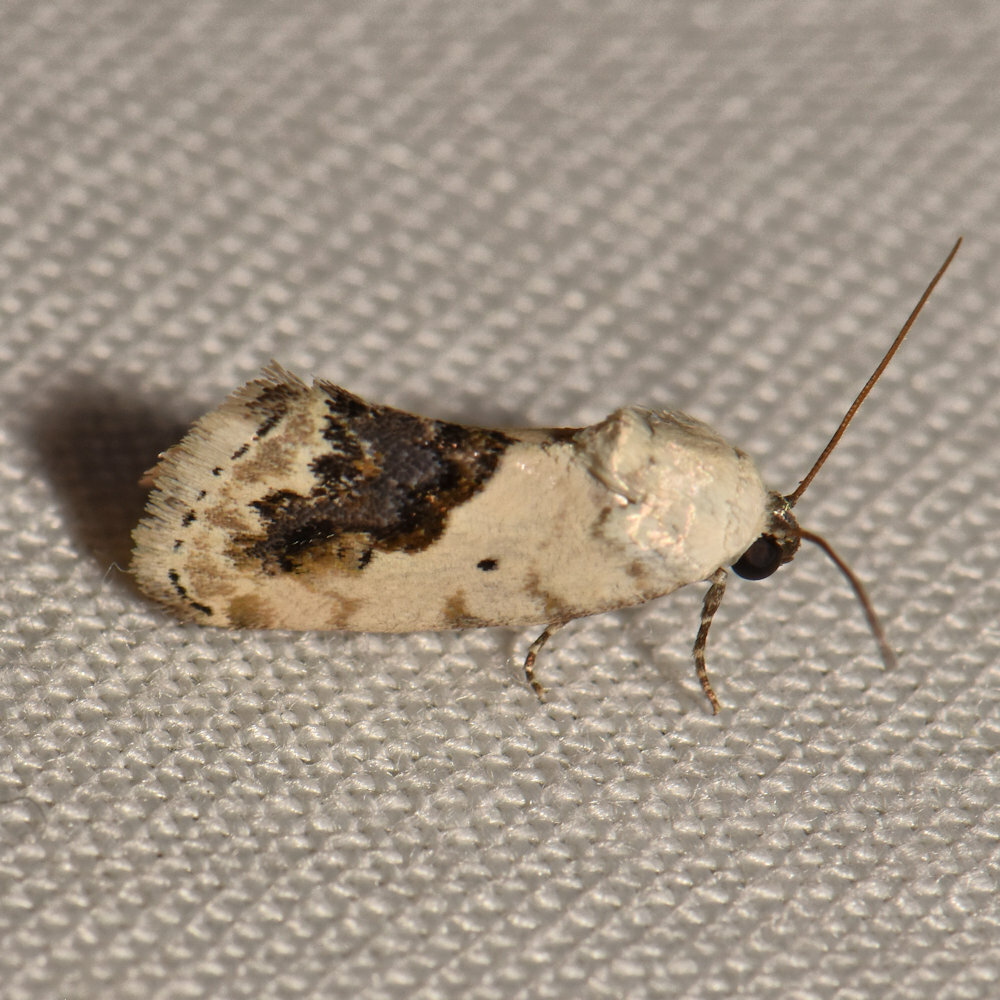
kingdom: Animalia
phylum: Arthropoda
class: Insecta
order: Lepidoptera
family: Noctuidae
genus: Acontia
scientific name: Acontia erastrioides
